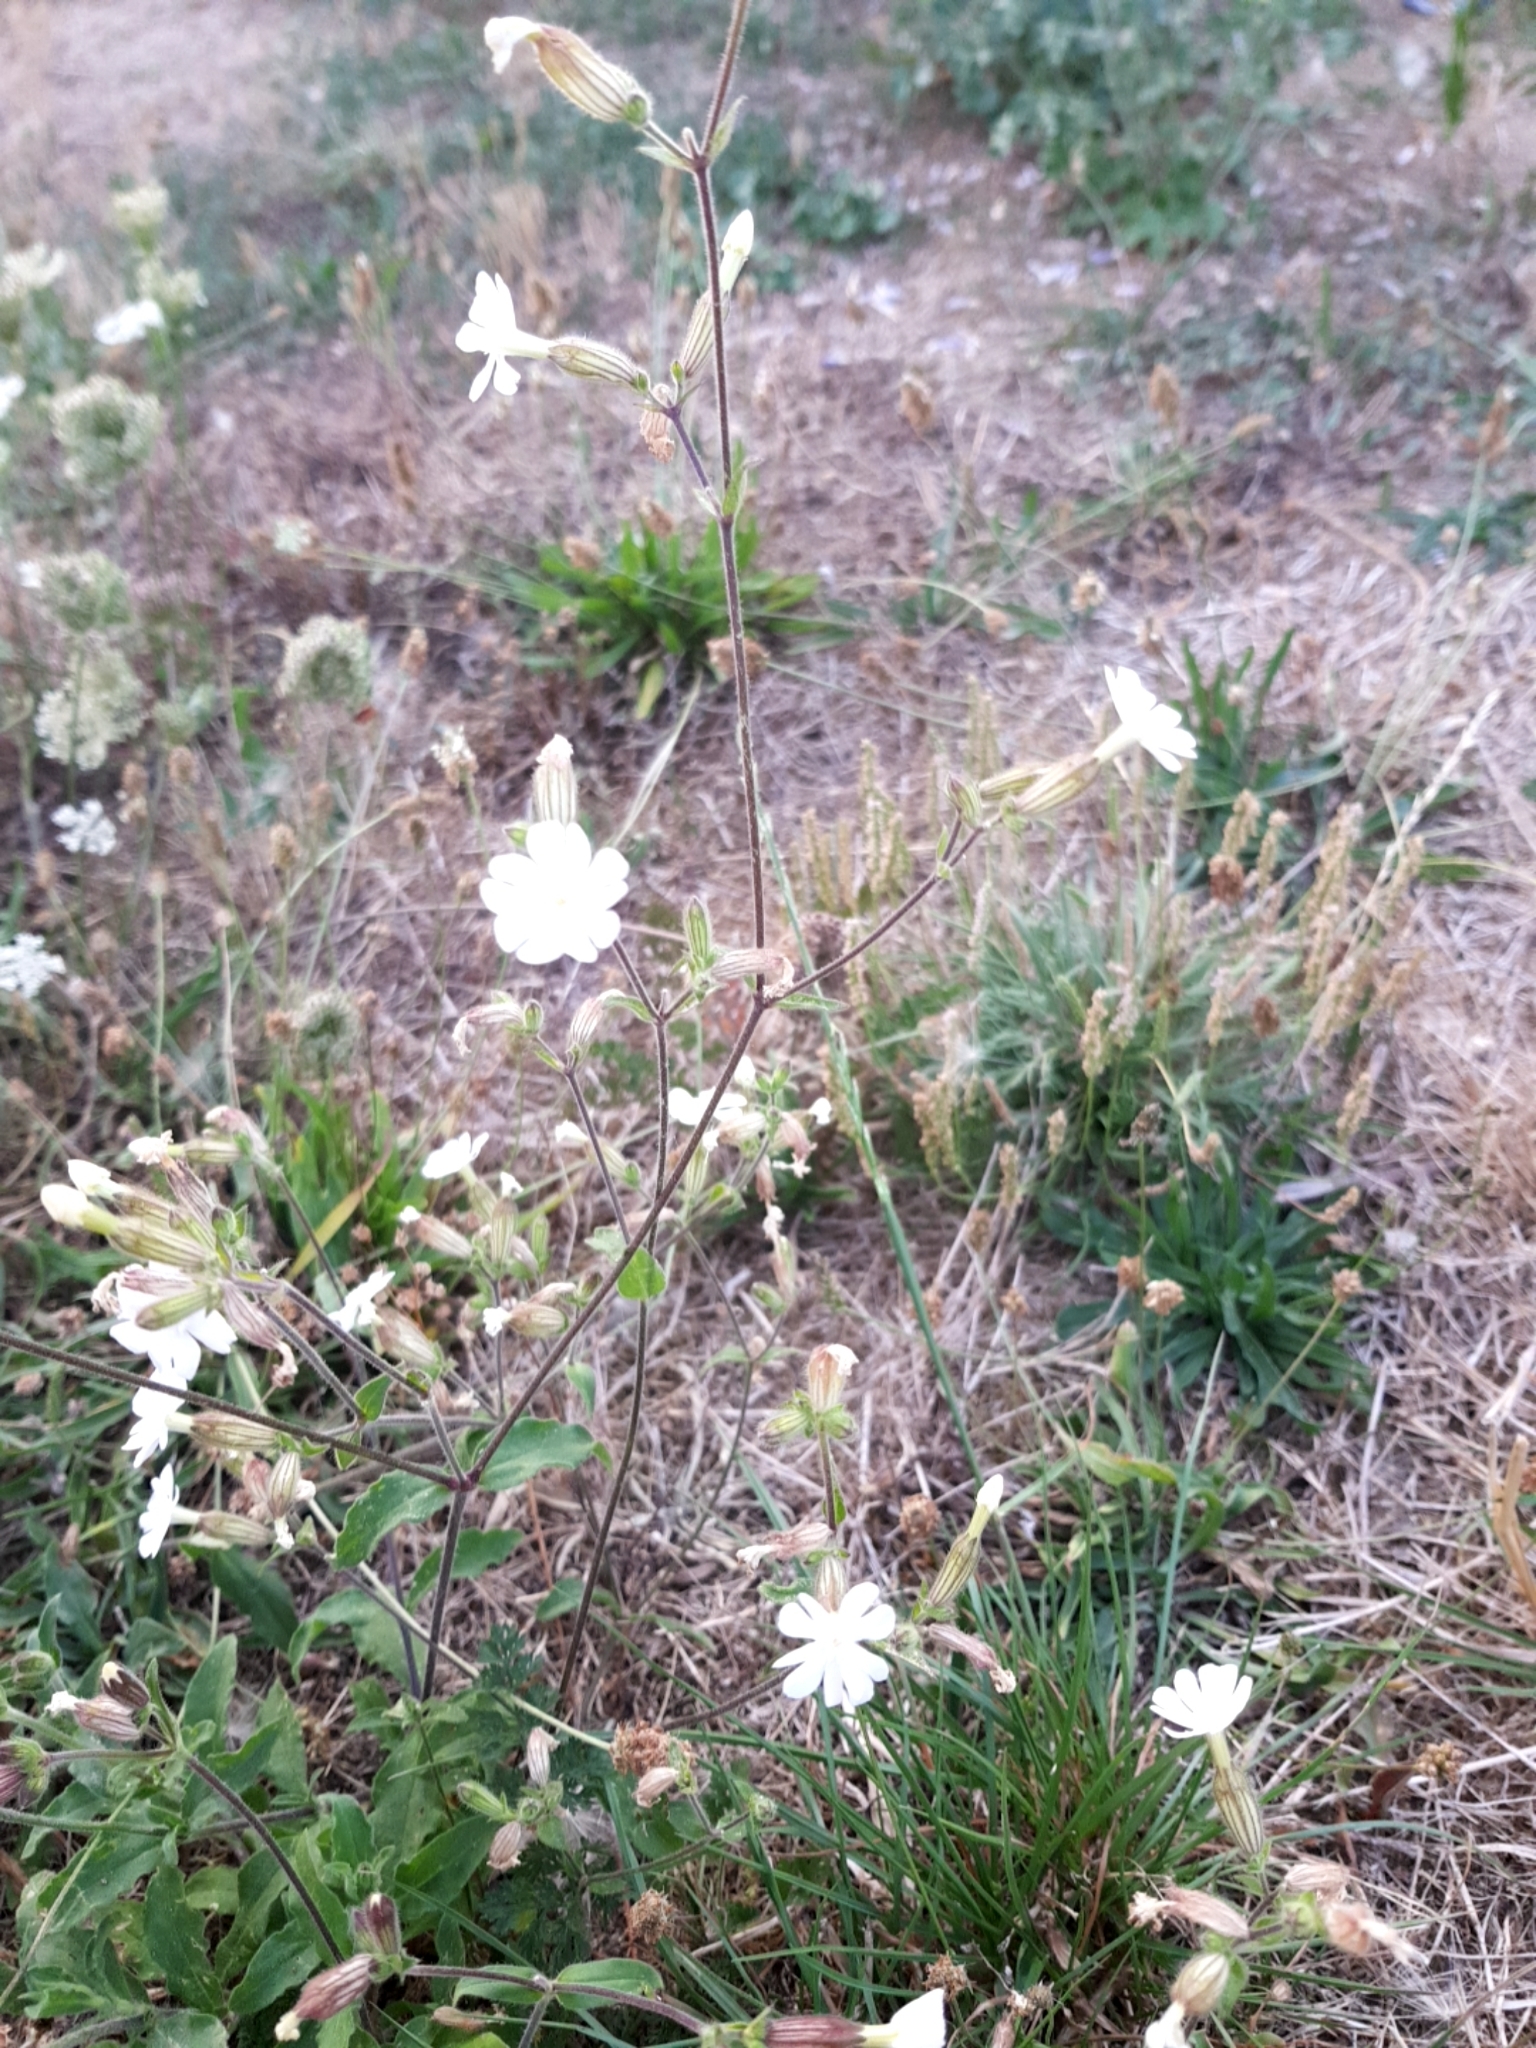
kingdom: Plantae
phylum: Tracheophyta
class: Magnoliopsida
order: Caryophyllales
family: Caryophyllaceae
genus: Silene
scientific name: Silene latifolia
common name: White campion
